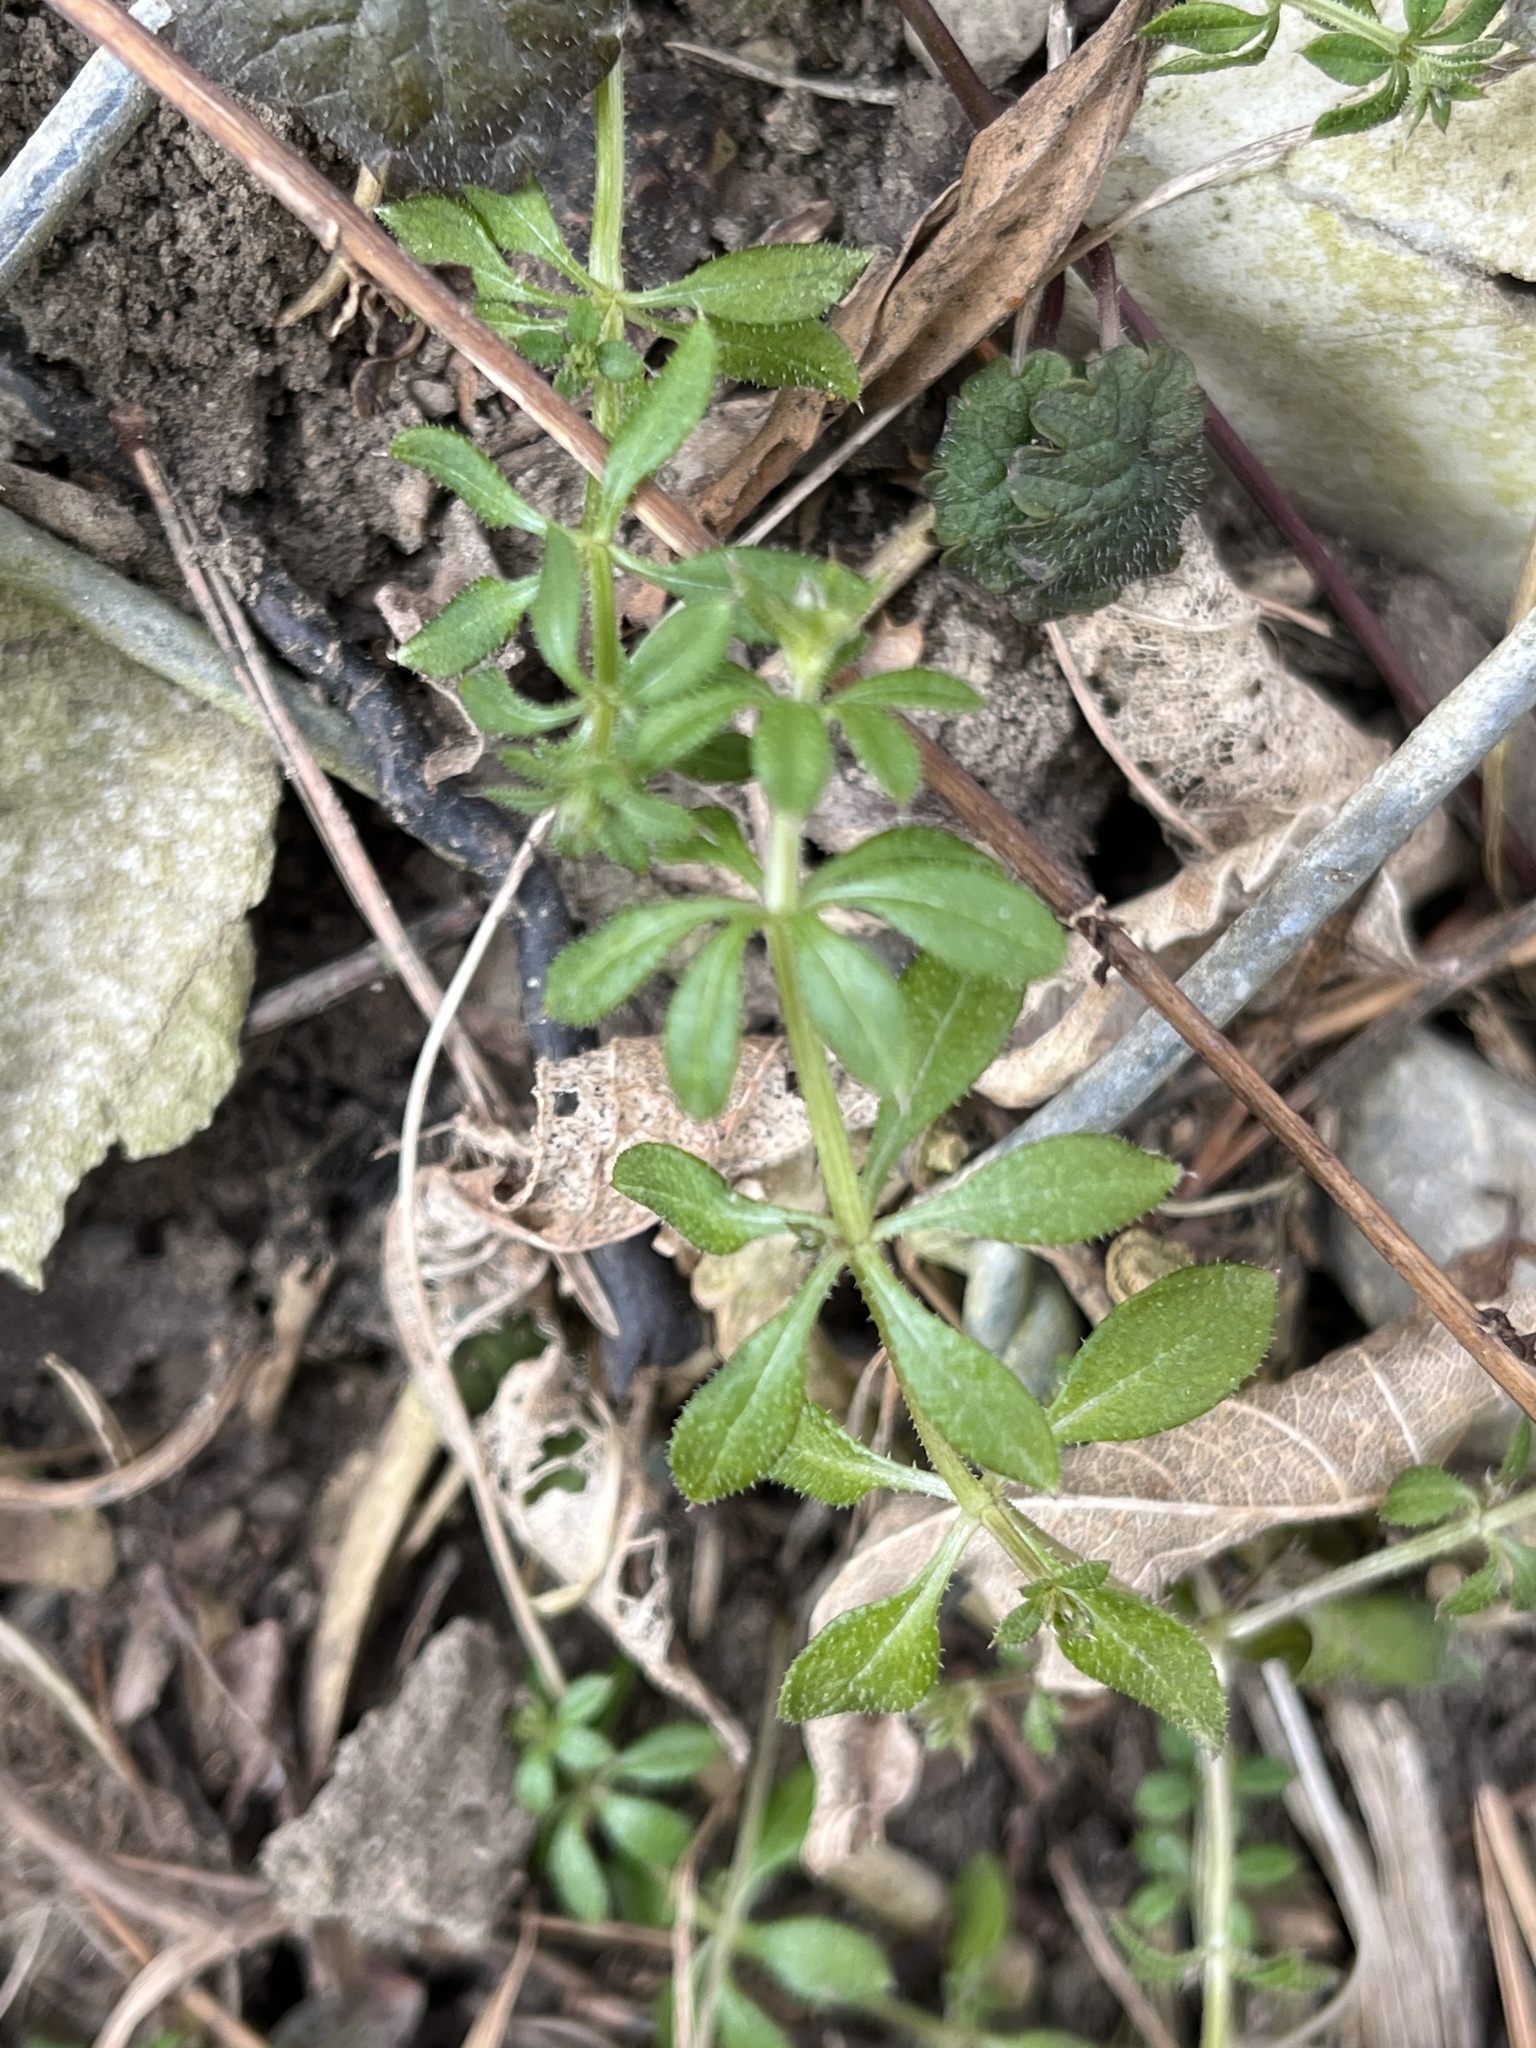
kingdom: Plantae
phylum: Tracheophyta
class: Magnoliopsida
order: Gentianales
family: Rubiaceae
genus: Galium
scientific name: Galium aparine
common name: Cleavers
